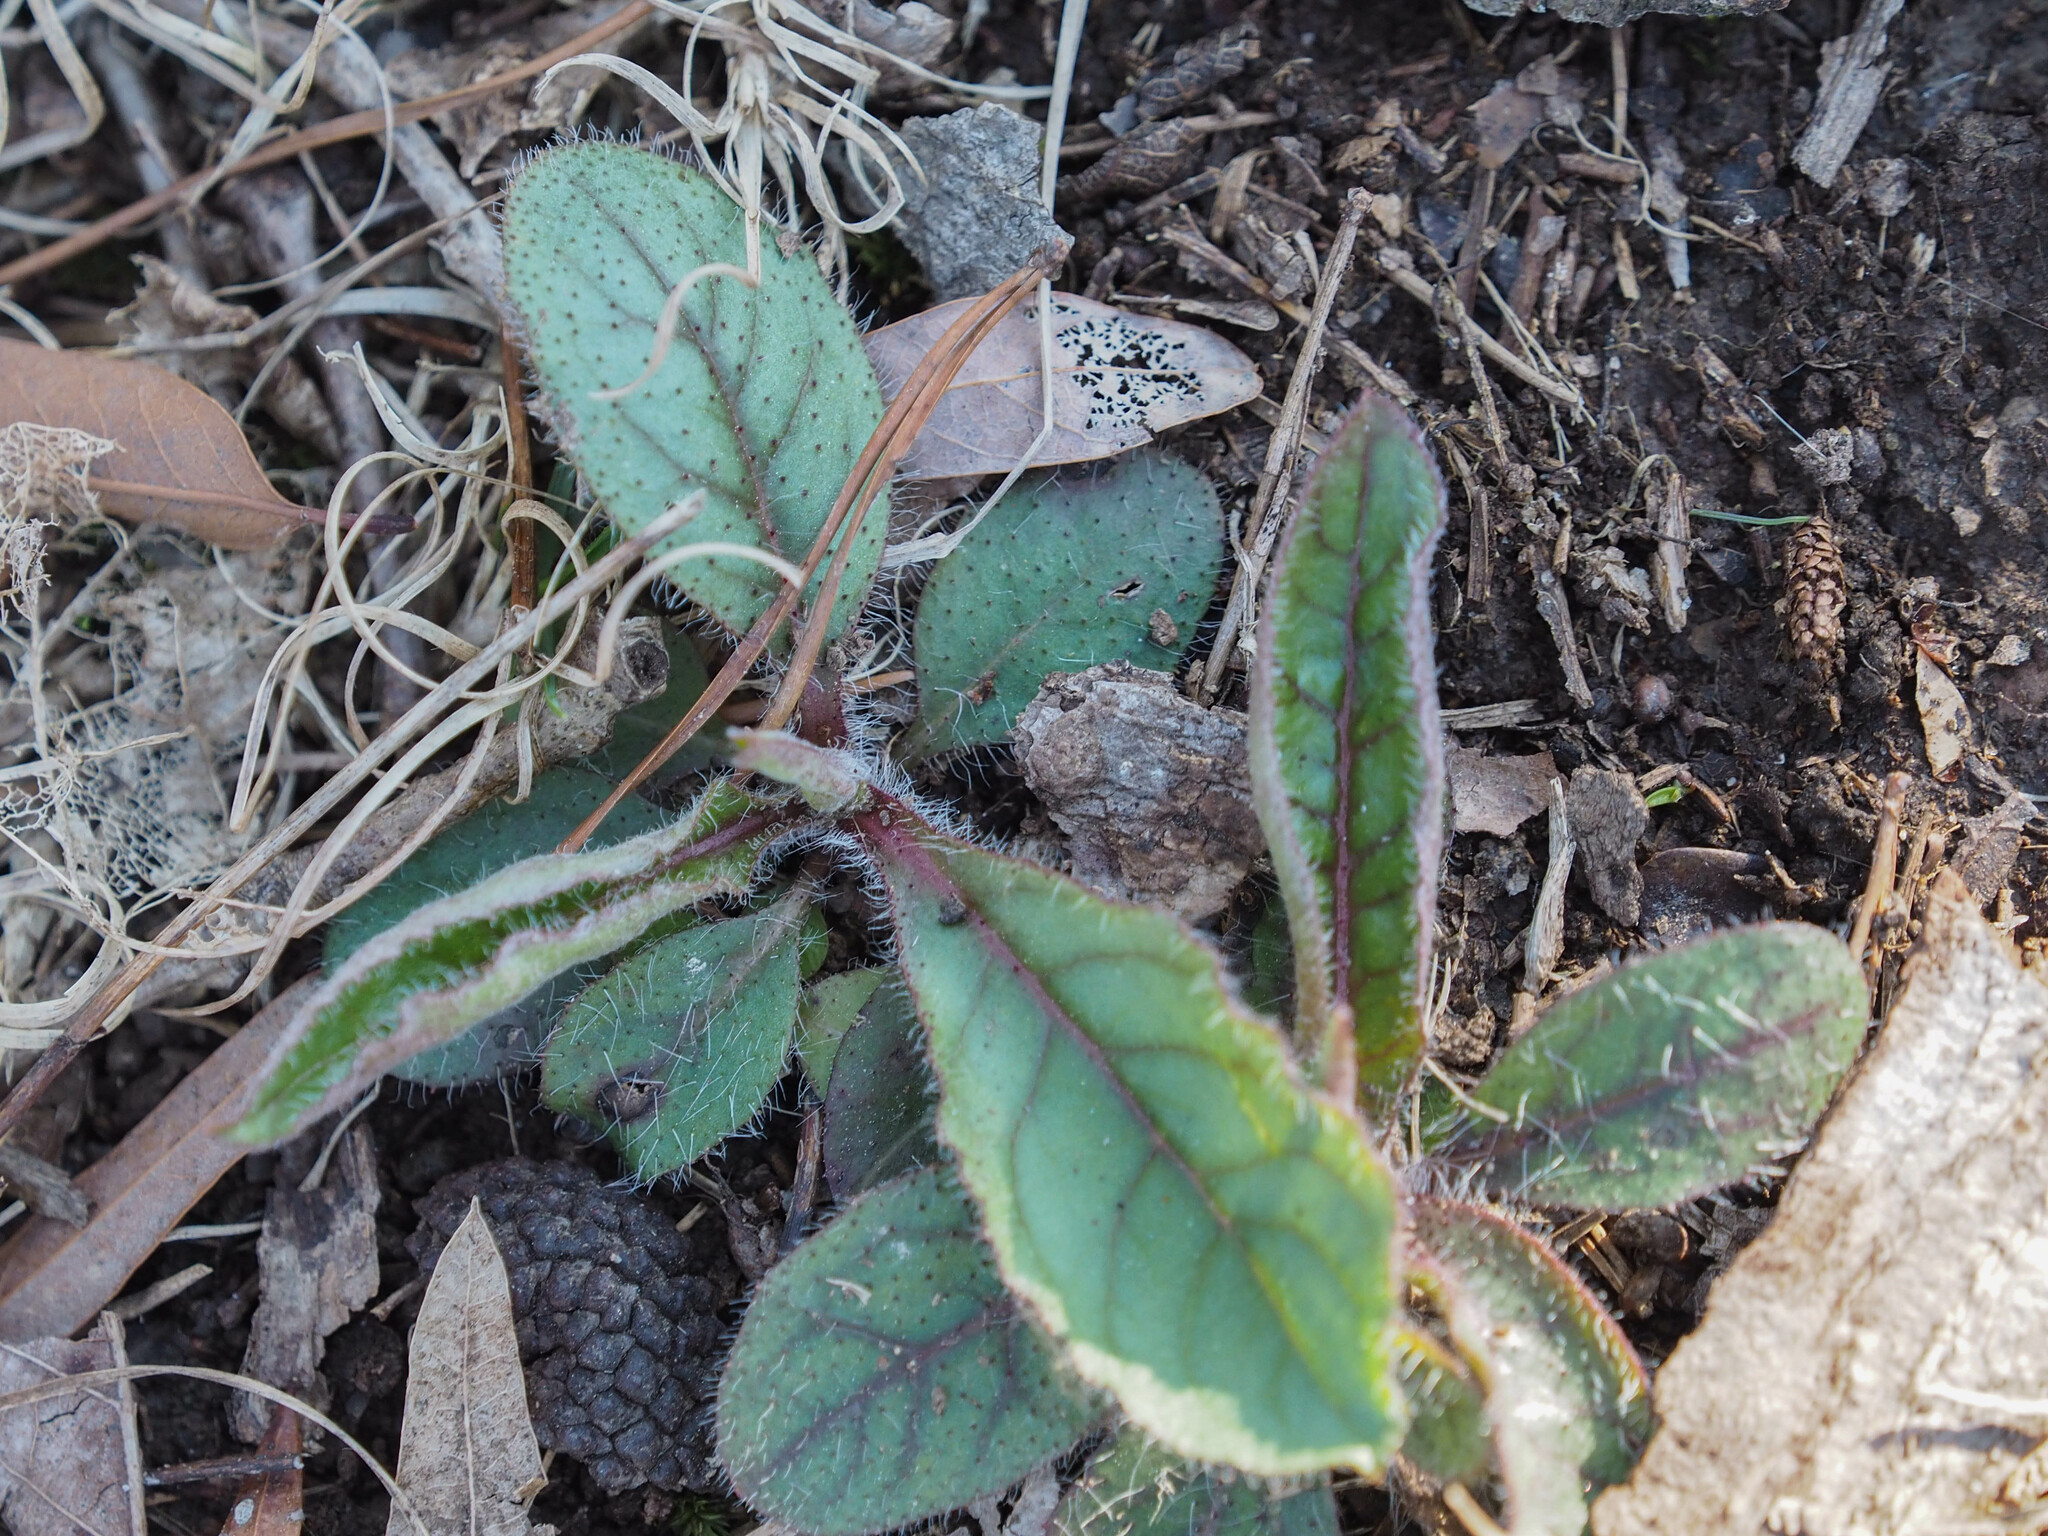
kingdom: Plantae
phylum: Tracheophyta
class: Magnoliopsida
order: Asterales
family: Asteraceae
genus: Hieracium
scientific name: Hieracium venosum
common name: Rattlesnake hawkweed
